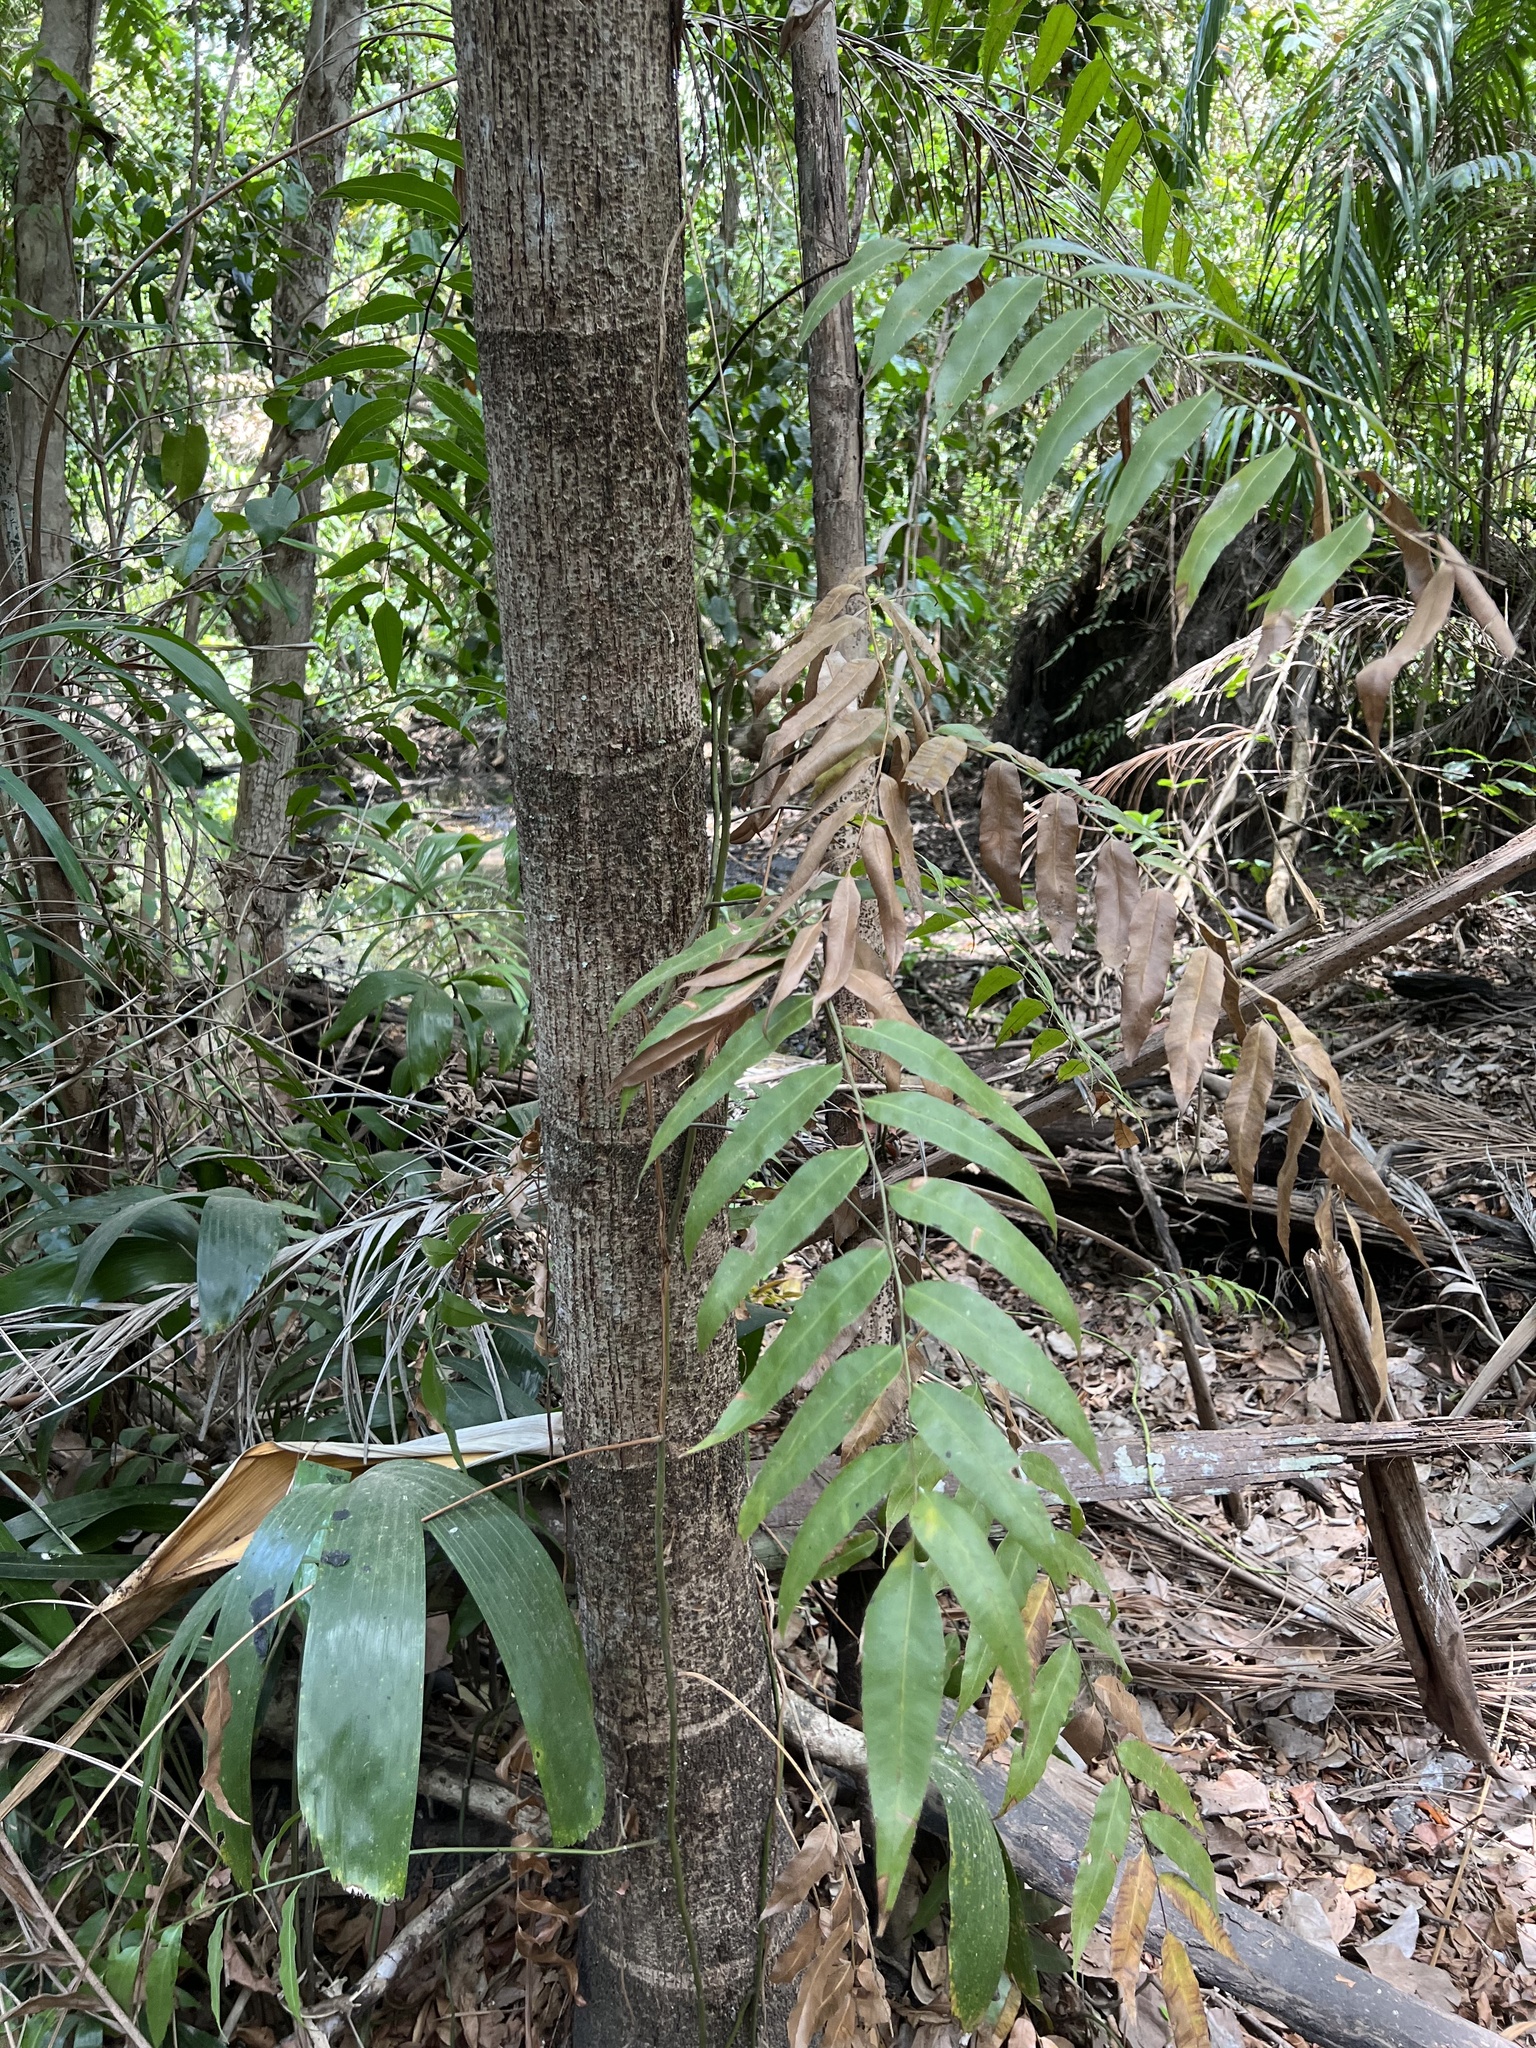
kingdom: Plantae
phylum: Tracheophyta
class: Polypodiopsida
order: Polypodiales
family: Blechnaceae
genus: Stenochlaena
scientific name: Stenochlaena palustris
